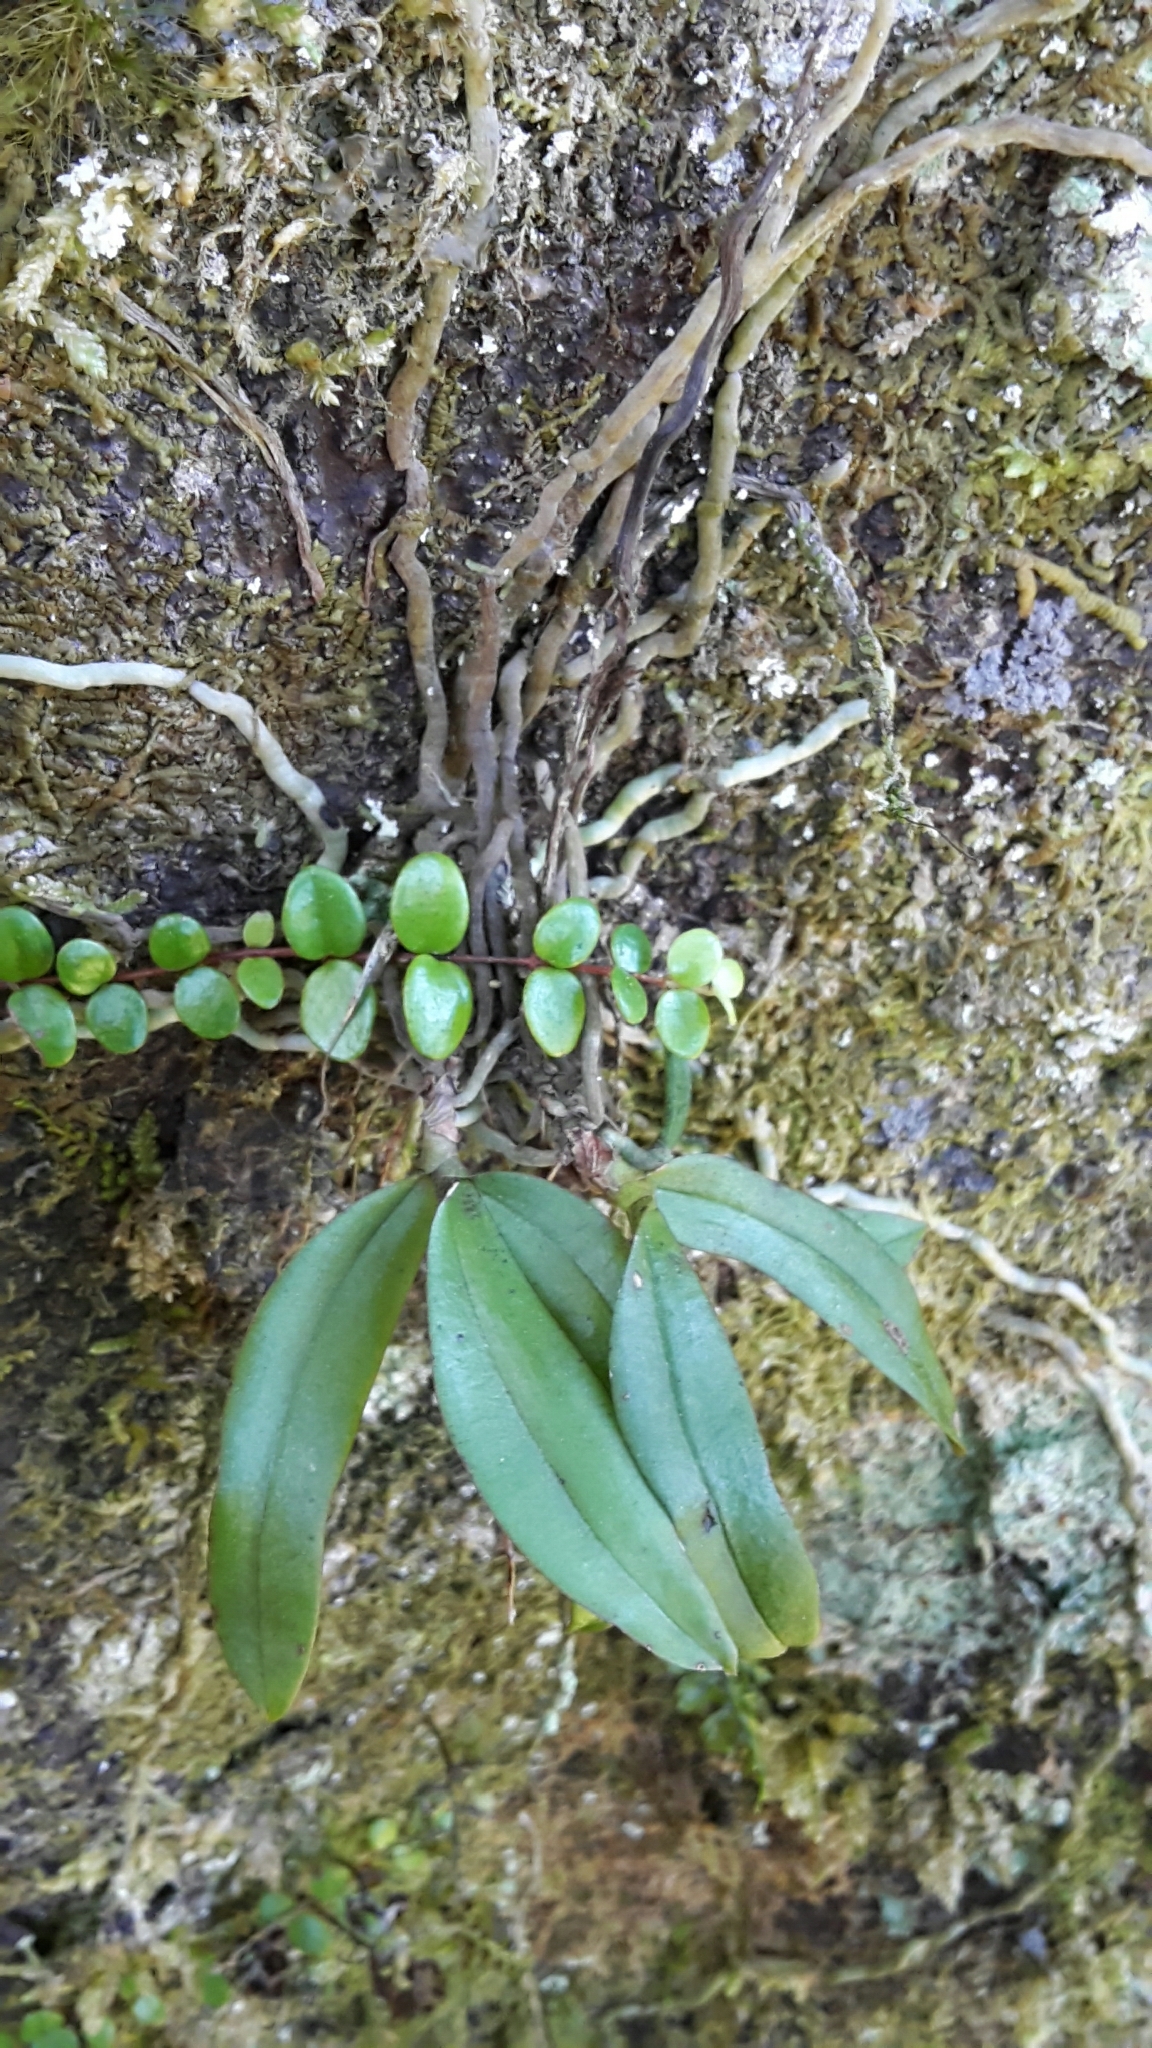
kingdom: Plantae
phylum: Tracheophyta
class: Liliopsida
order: Asparagales
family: Orchidaceae
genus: Drymoanthus
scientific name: Drymoanthus adversus
